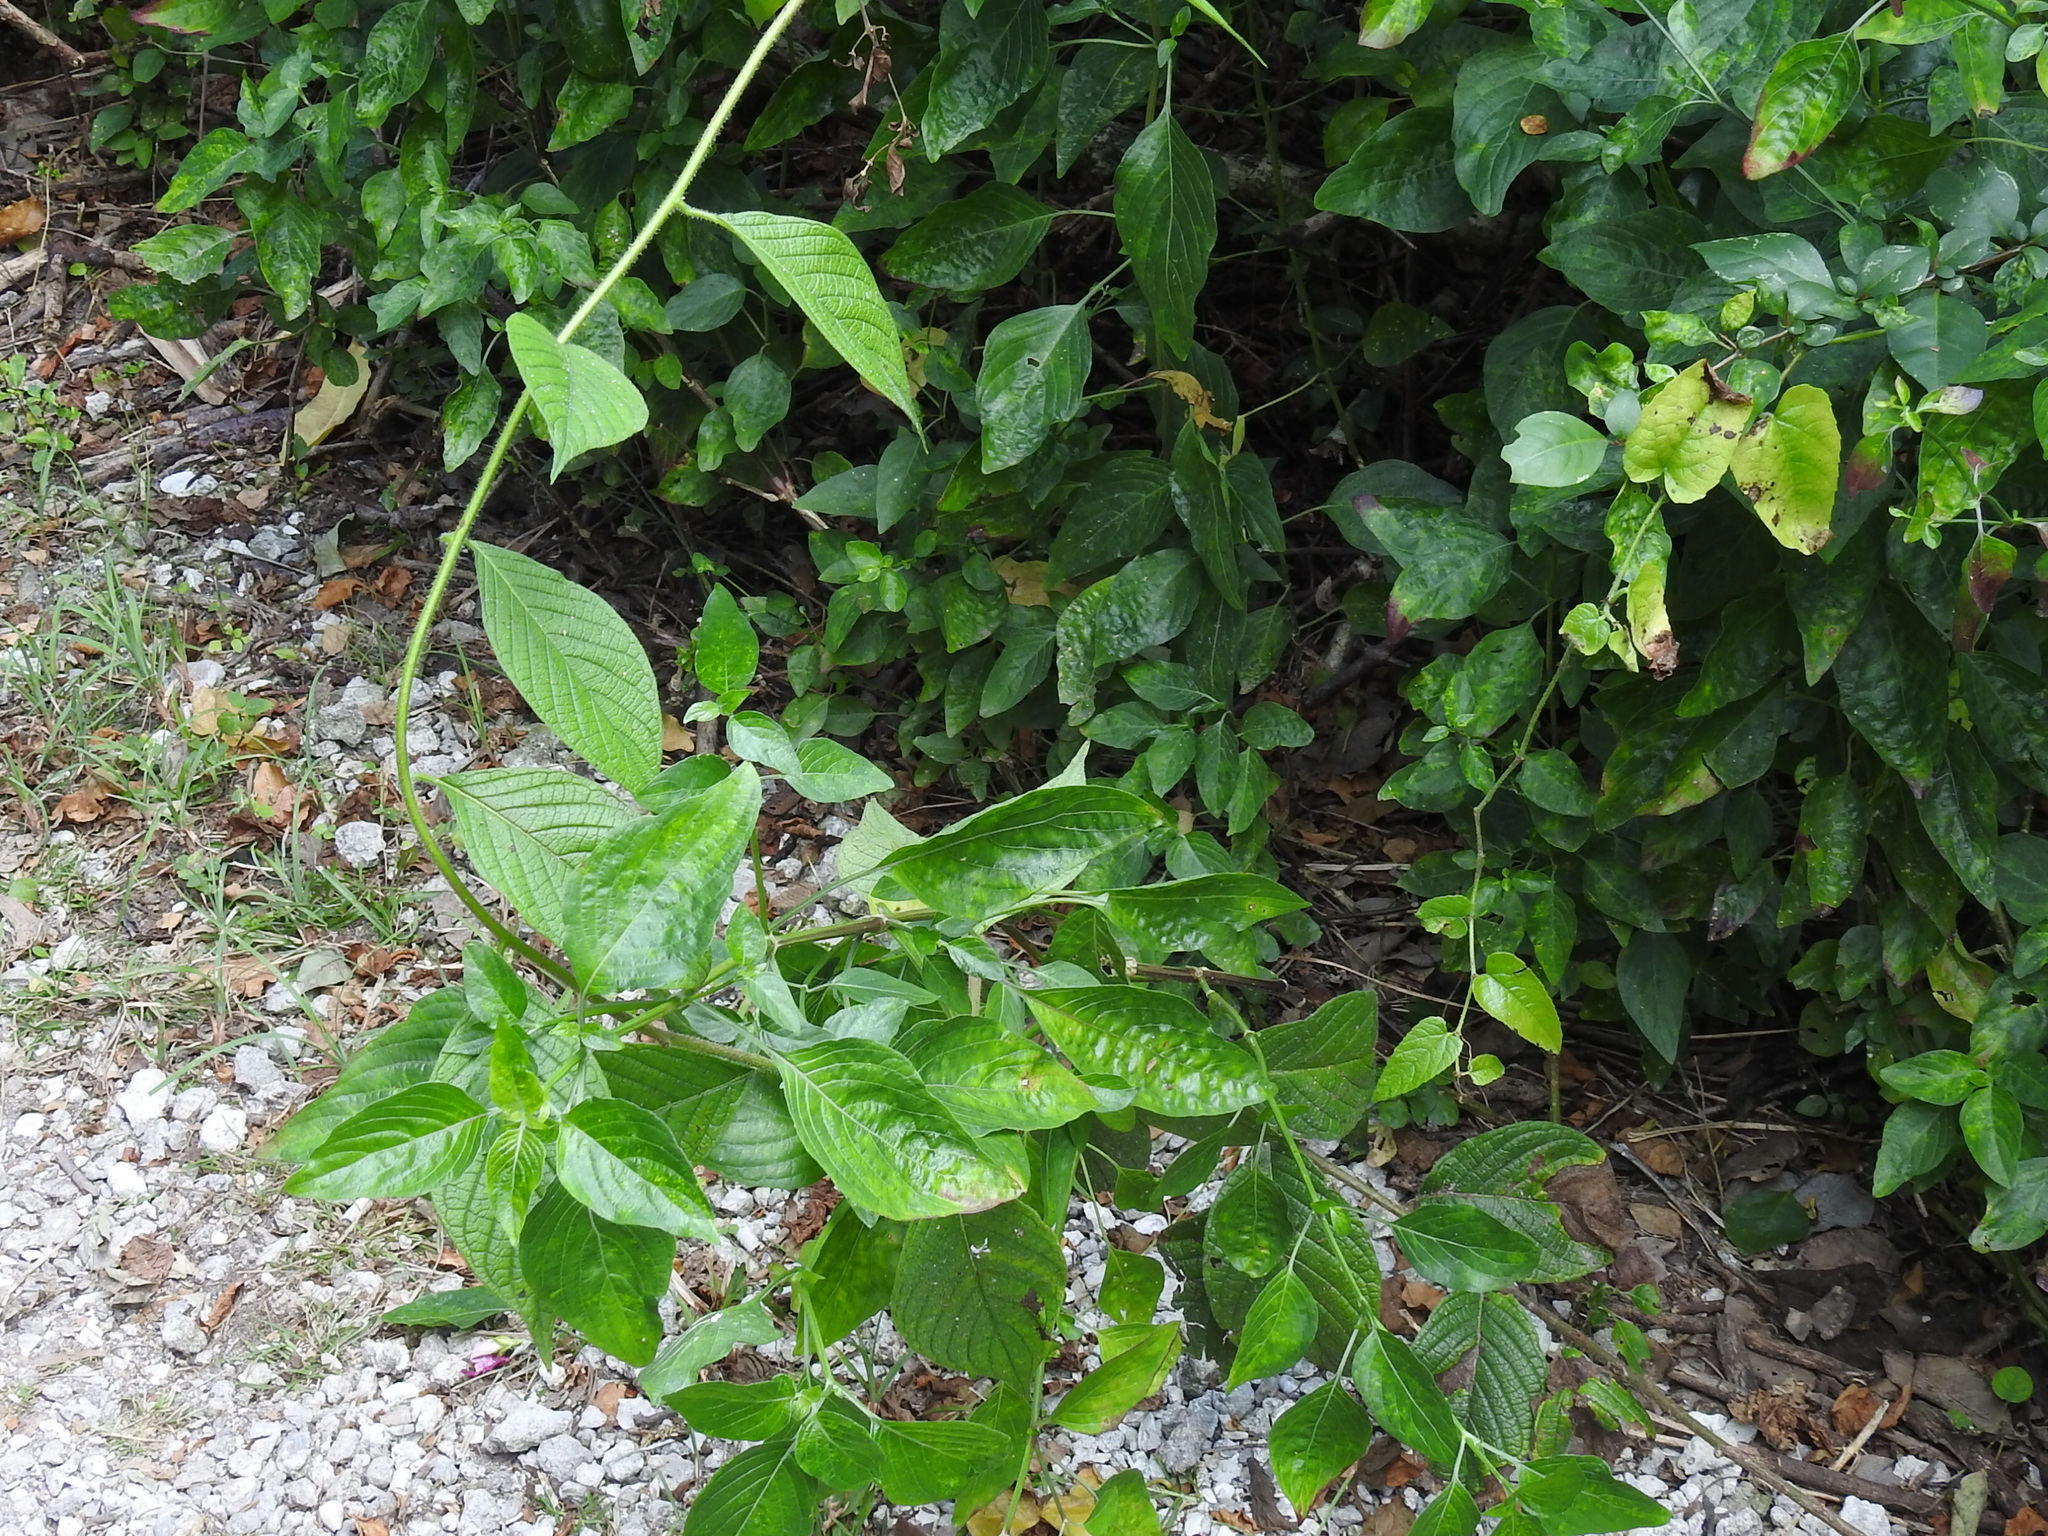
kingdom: Plantae
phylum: Tracheophyta
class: Magnoliopsida
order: Boraginales
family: Heliotropiaceae
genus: Heliotropium
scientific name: Heliotropium verdcourtii
